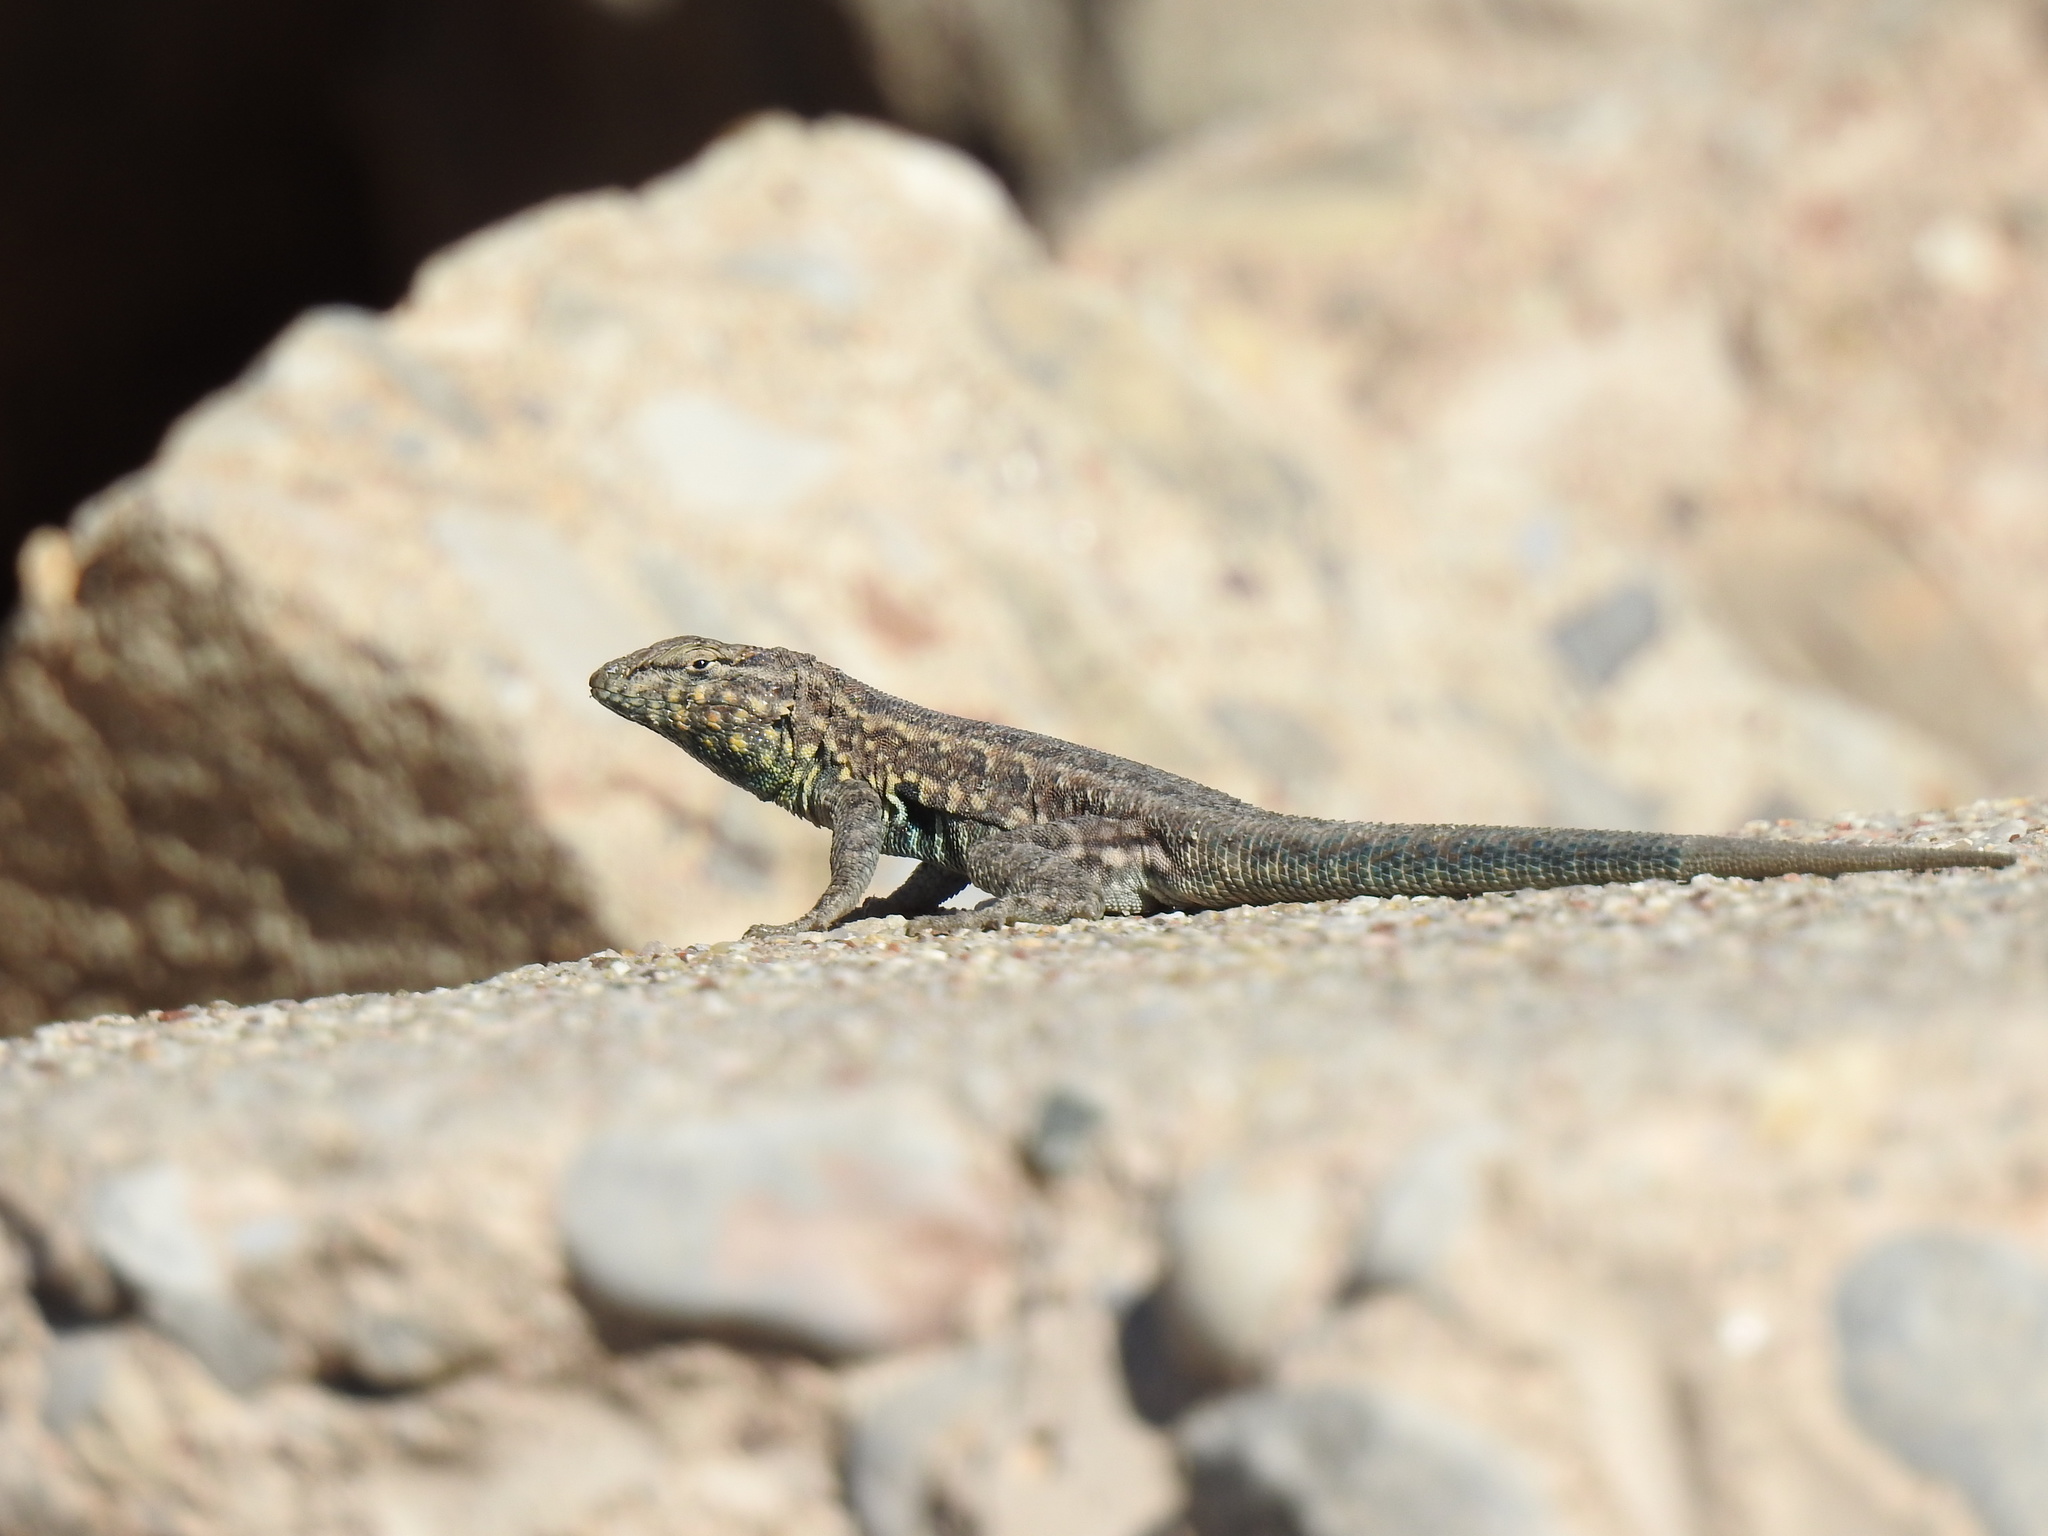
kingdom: Animalia
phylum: Chordata
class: Squamata
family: Phrynosomatidae
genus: Uta
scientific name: Uta stansburiana
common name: Side-blotched lizard
